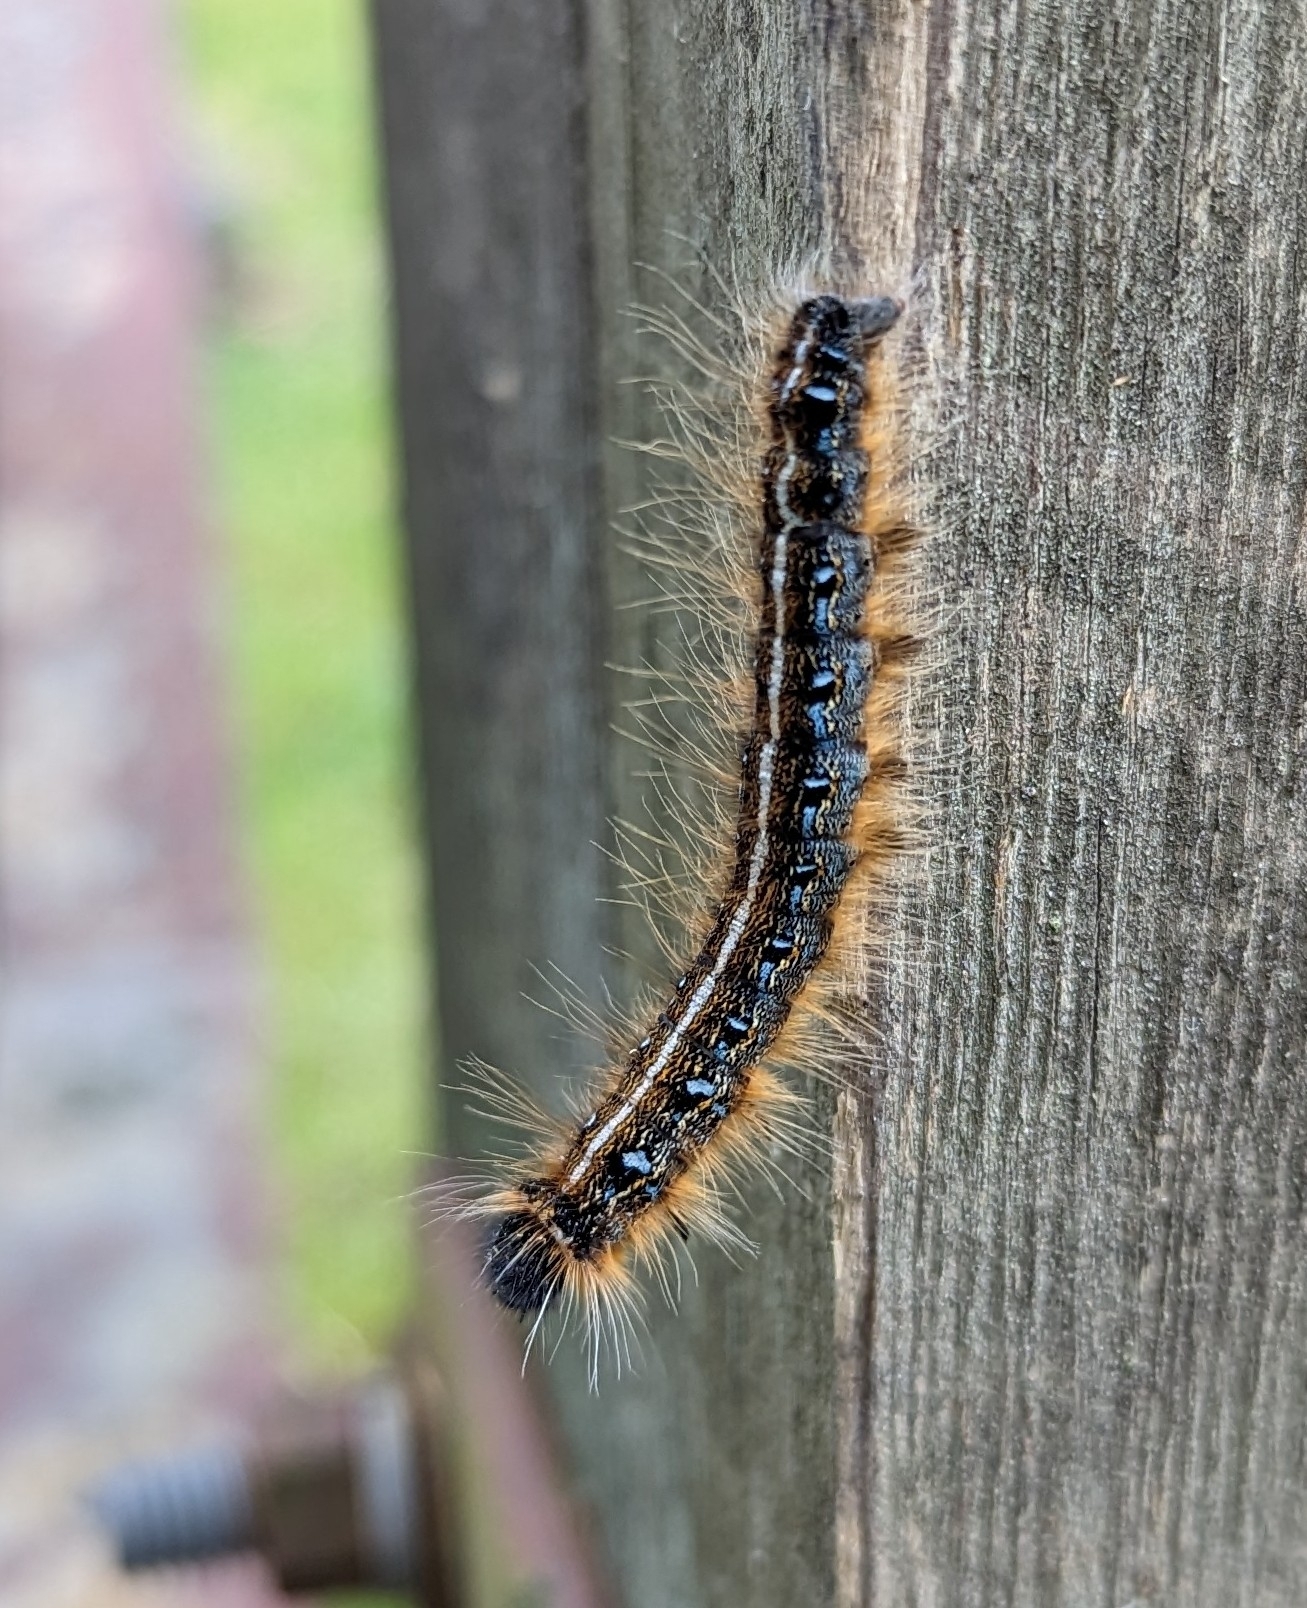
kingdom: Animalia
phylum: Arthropoda
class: Insecta
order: Lepidoptera
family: Lasiocampidae
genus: Malacosoma
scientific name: Malacosoma americana
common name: Eastern tent caterpillar moth
